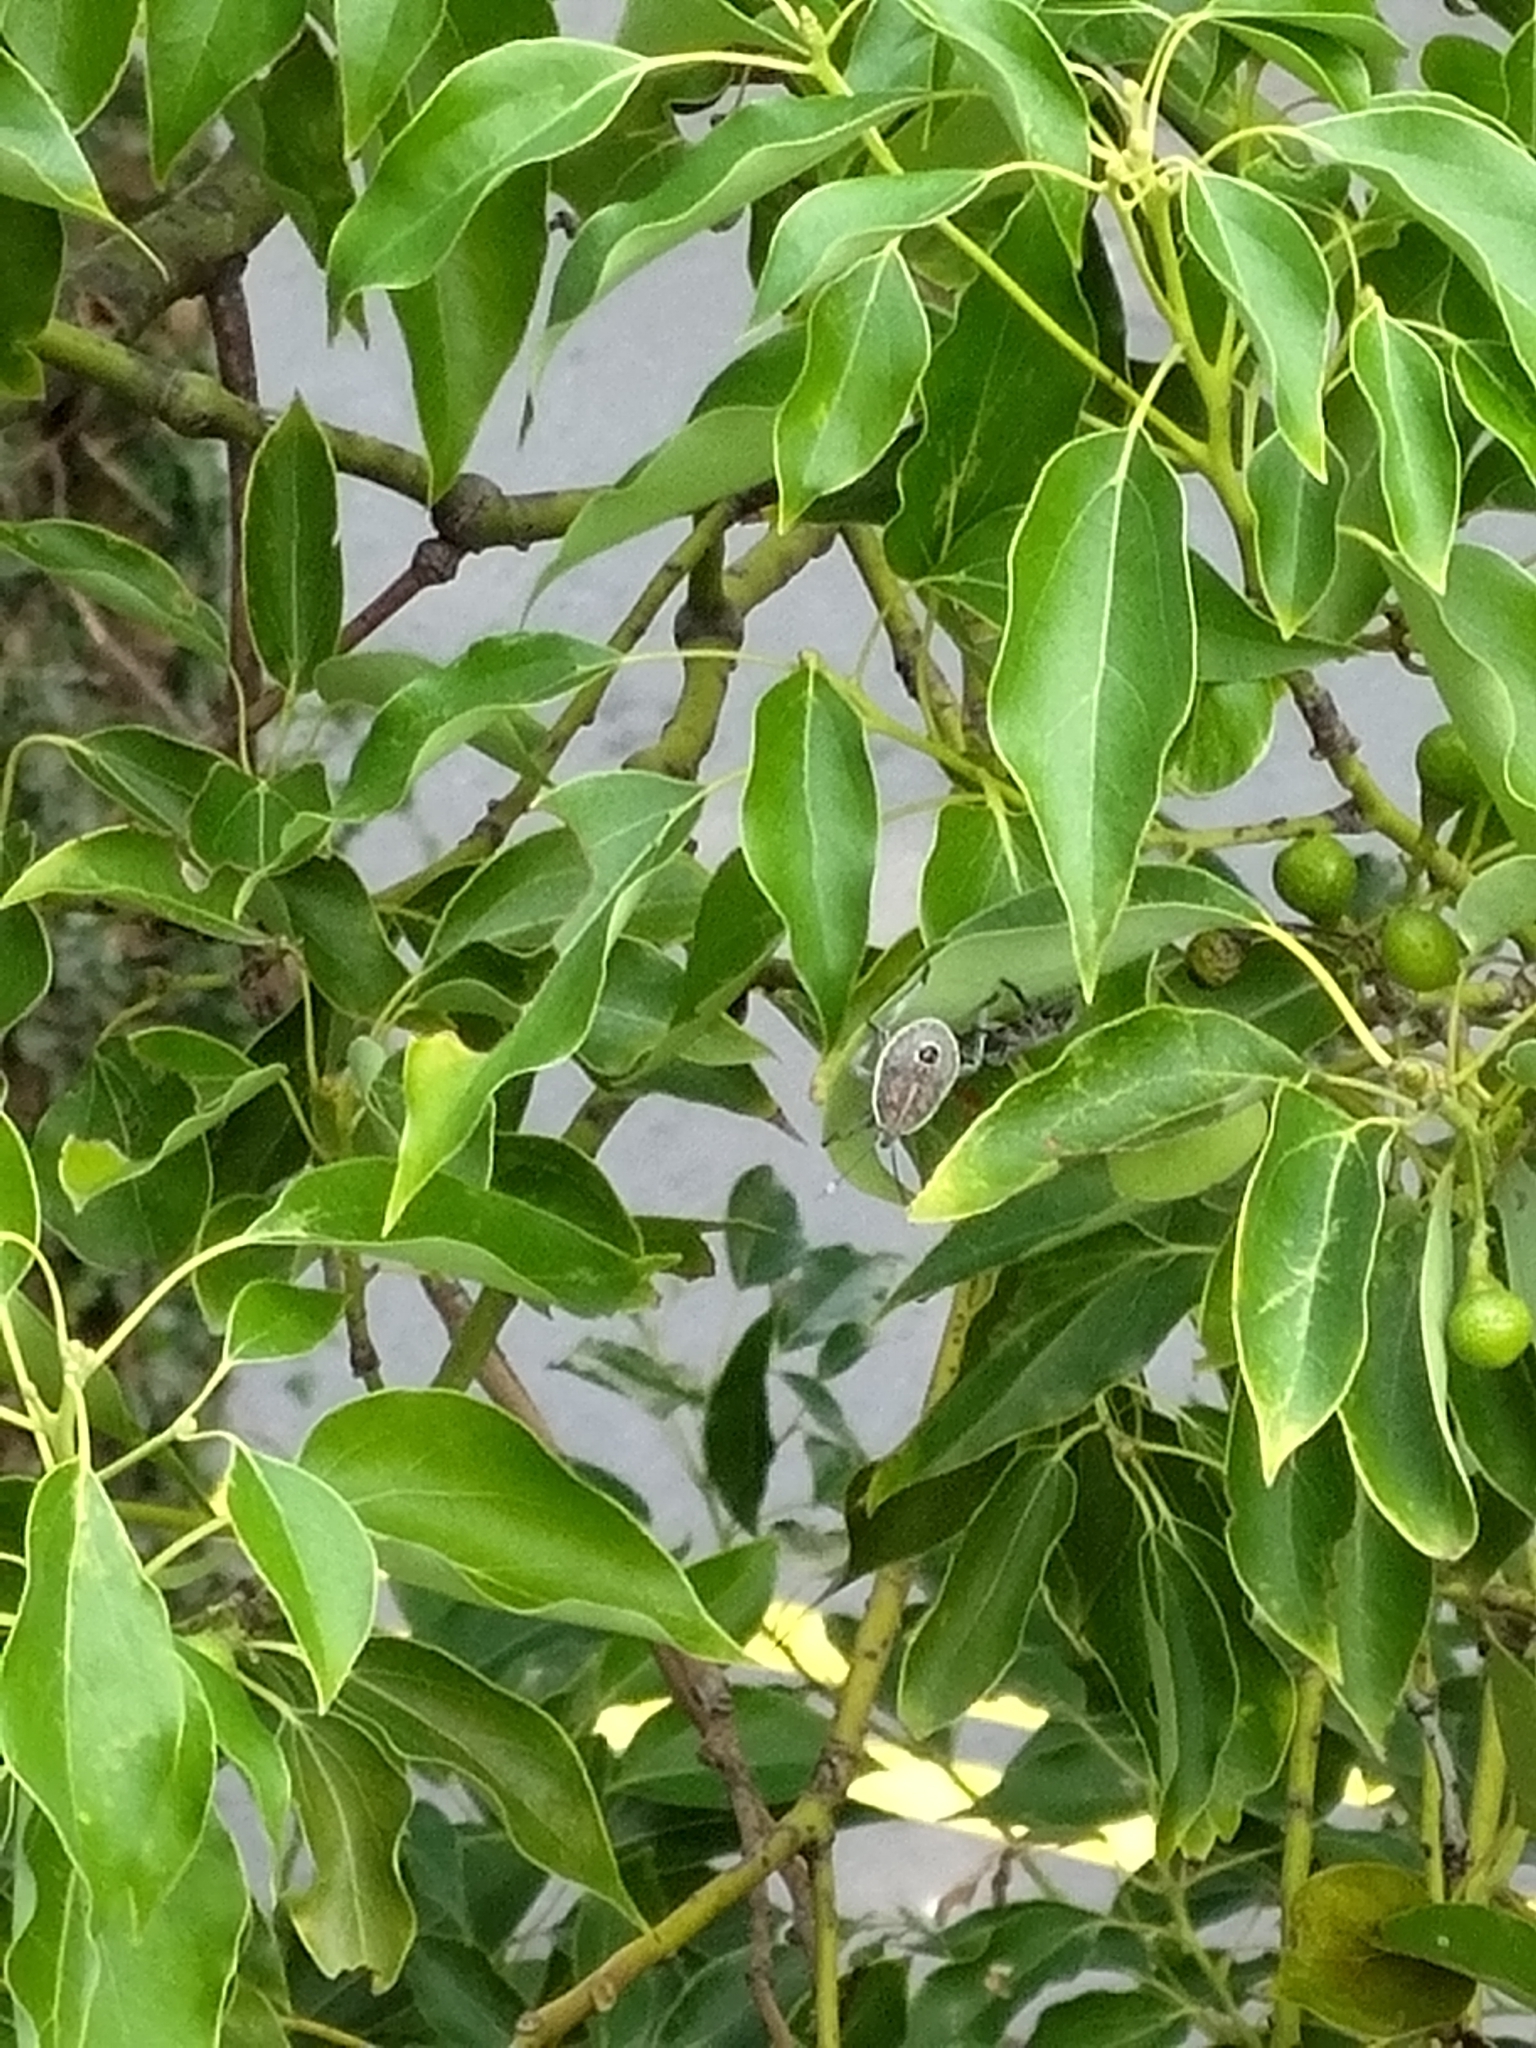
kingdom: Animalia
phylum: Arthropoda
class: Insecta
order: Hemiptera
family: Pentatomidae
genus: Erthesina
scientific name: Erthesina fullo
